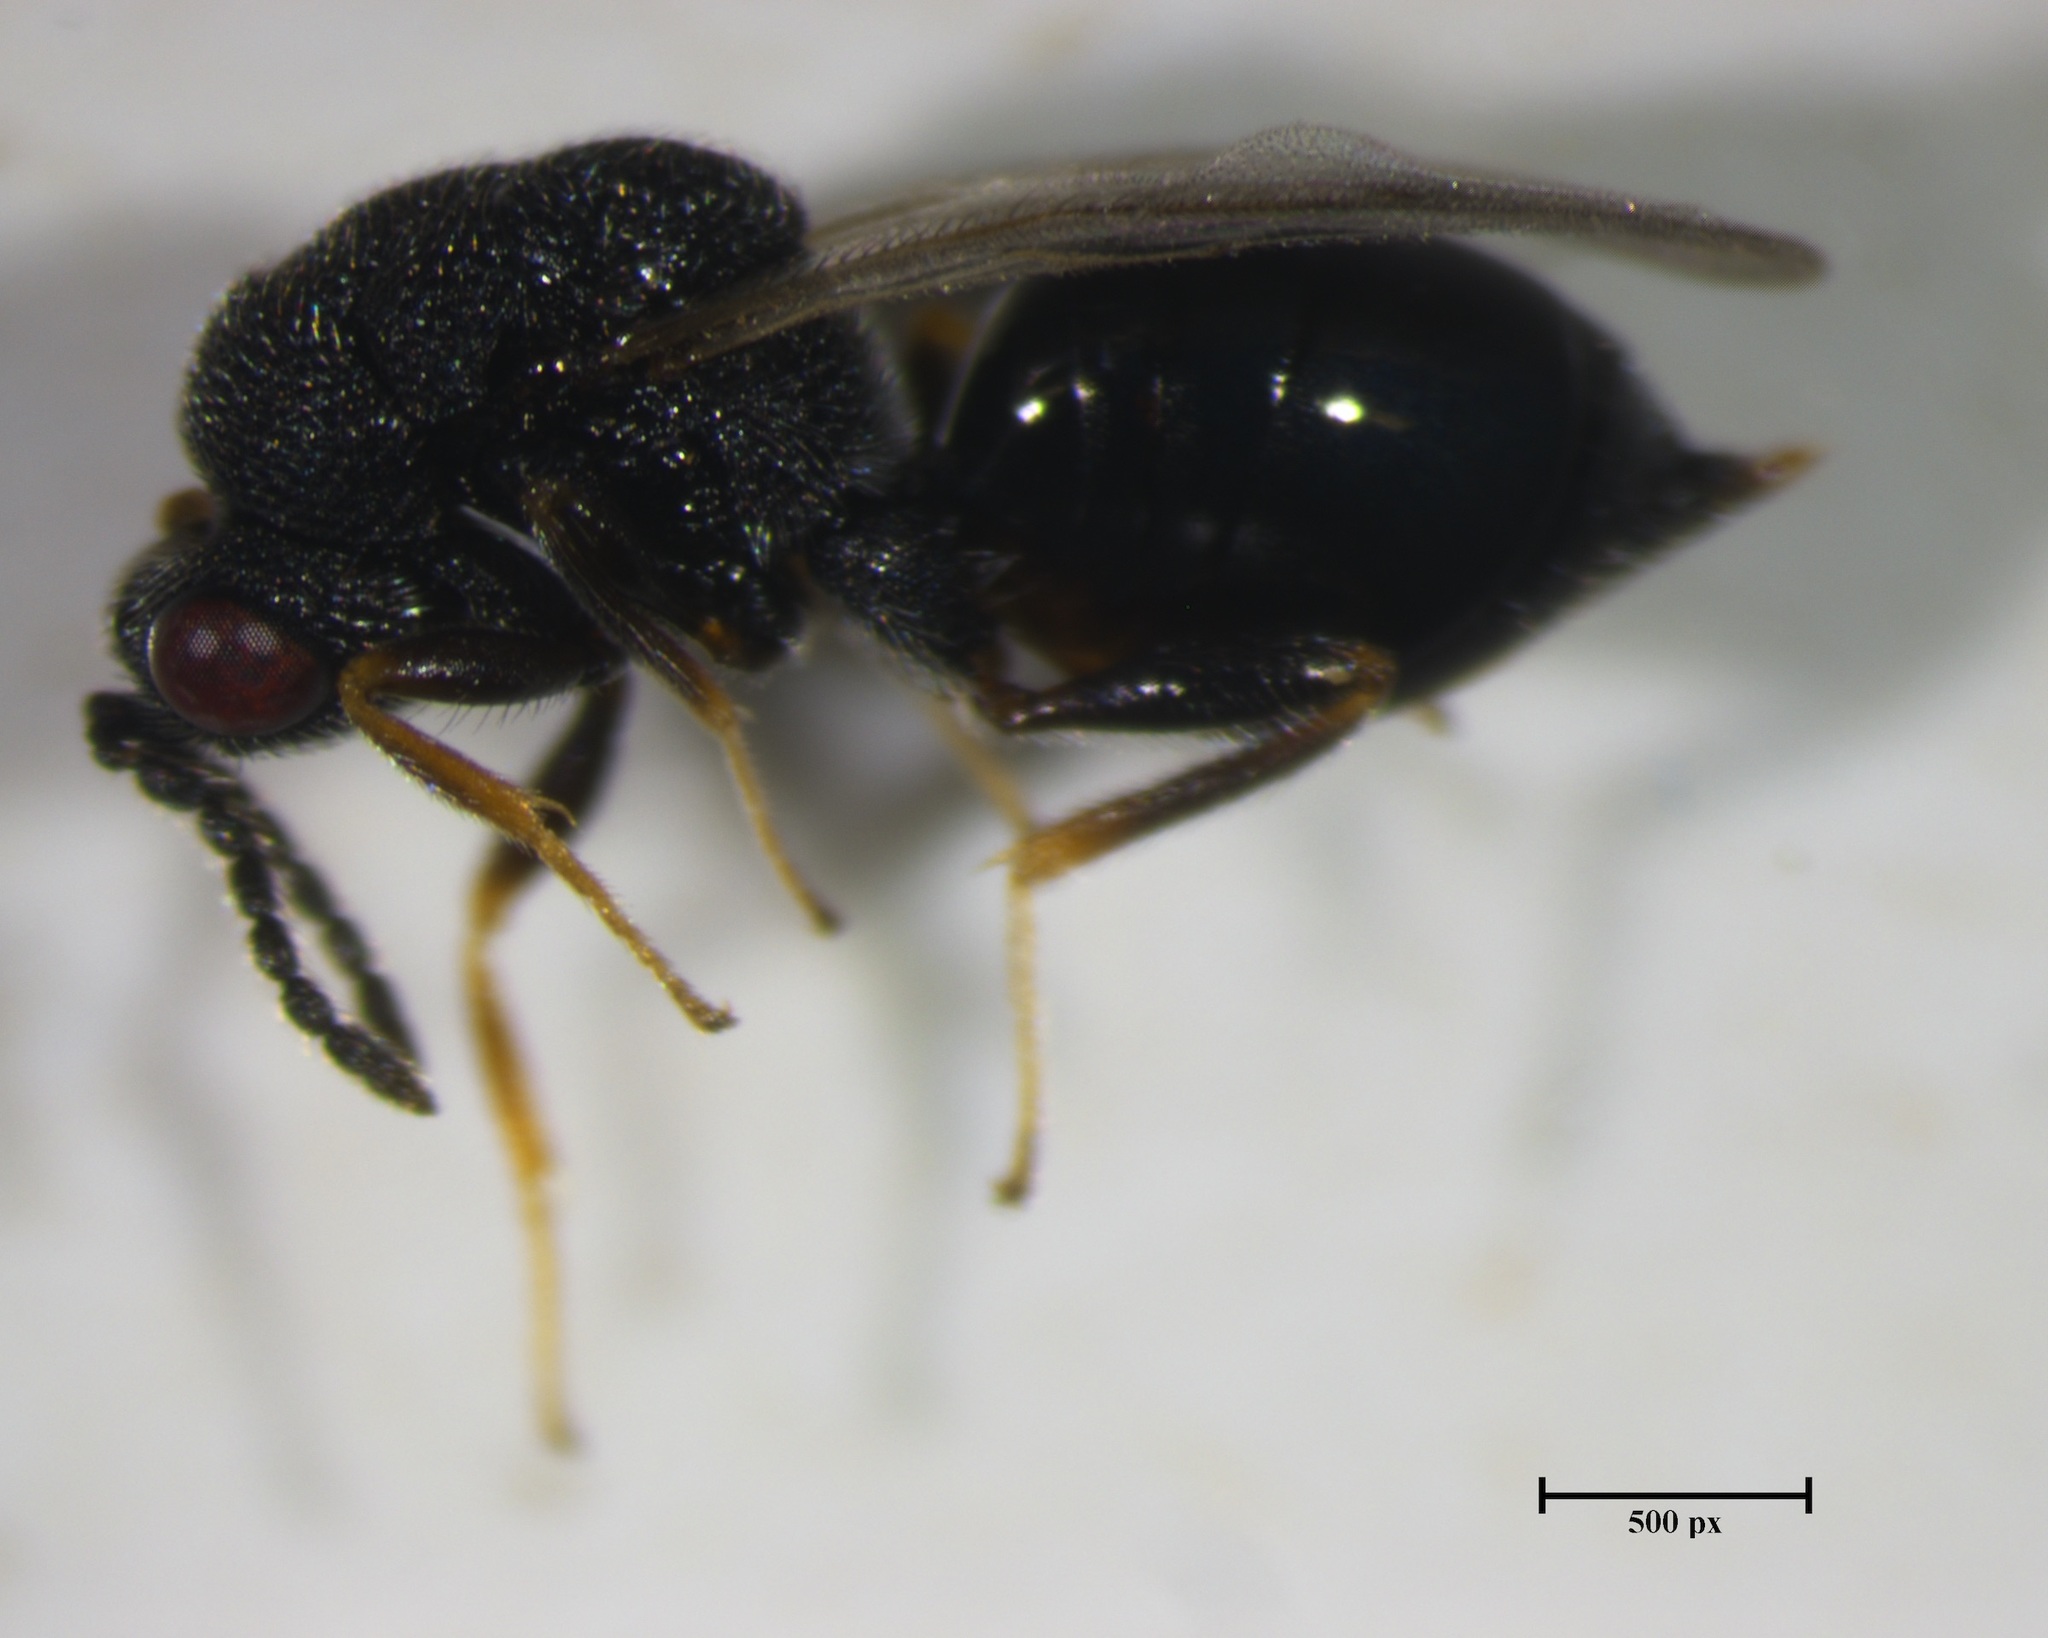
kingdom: Animalia
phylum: Arthropoda
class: Insecta
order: Hymenoptera
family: Eurytomidae
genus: Eurytoma
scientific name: Eurytoma longavena
